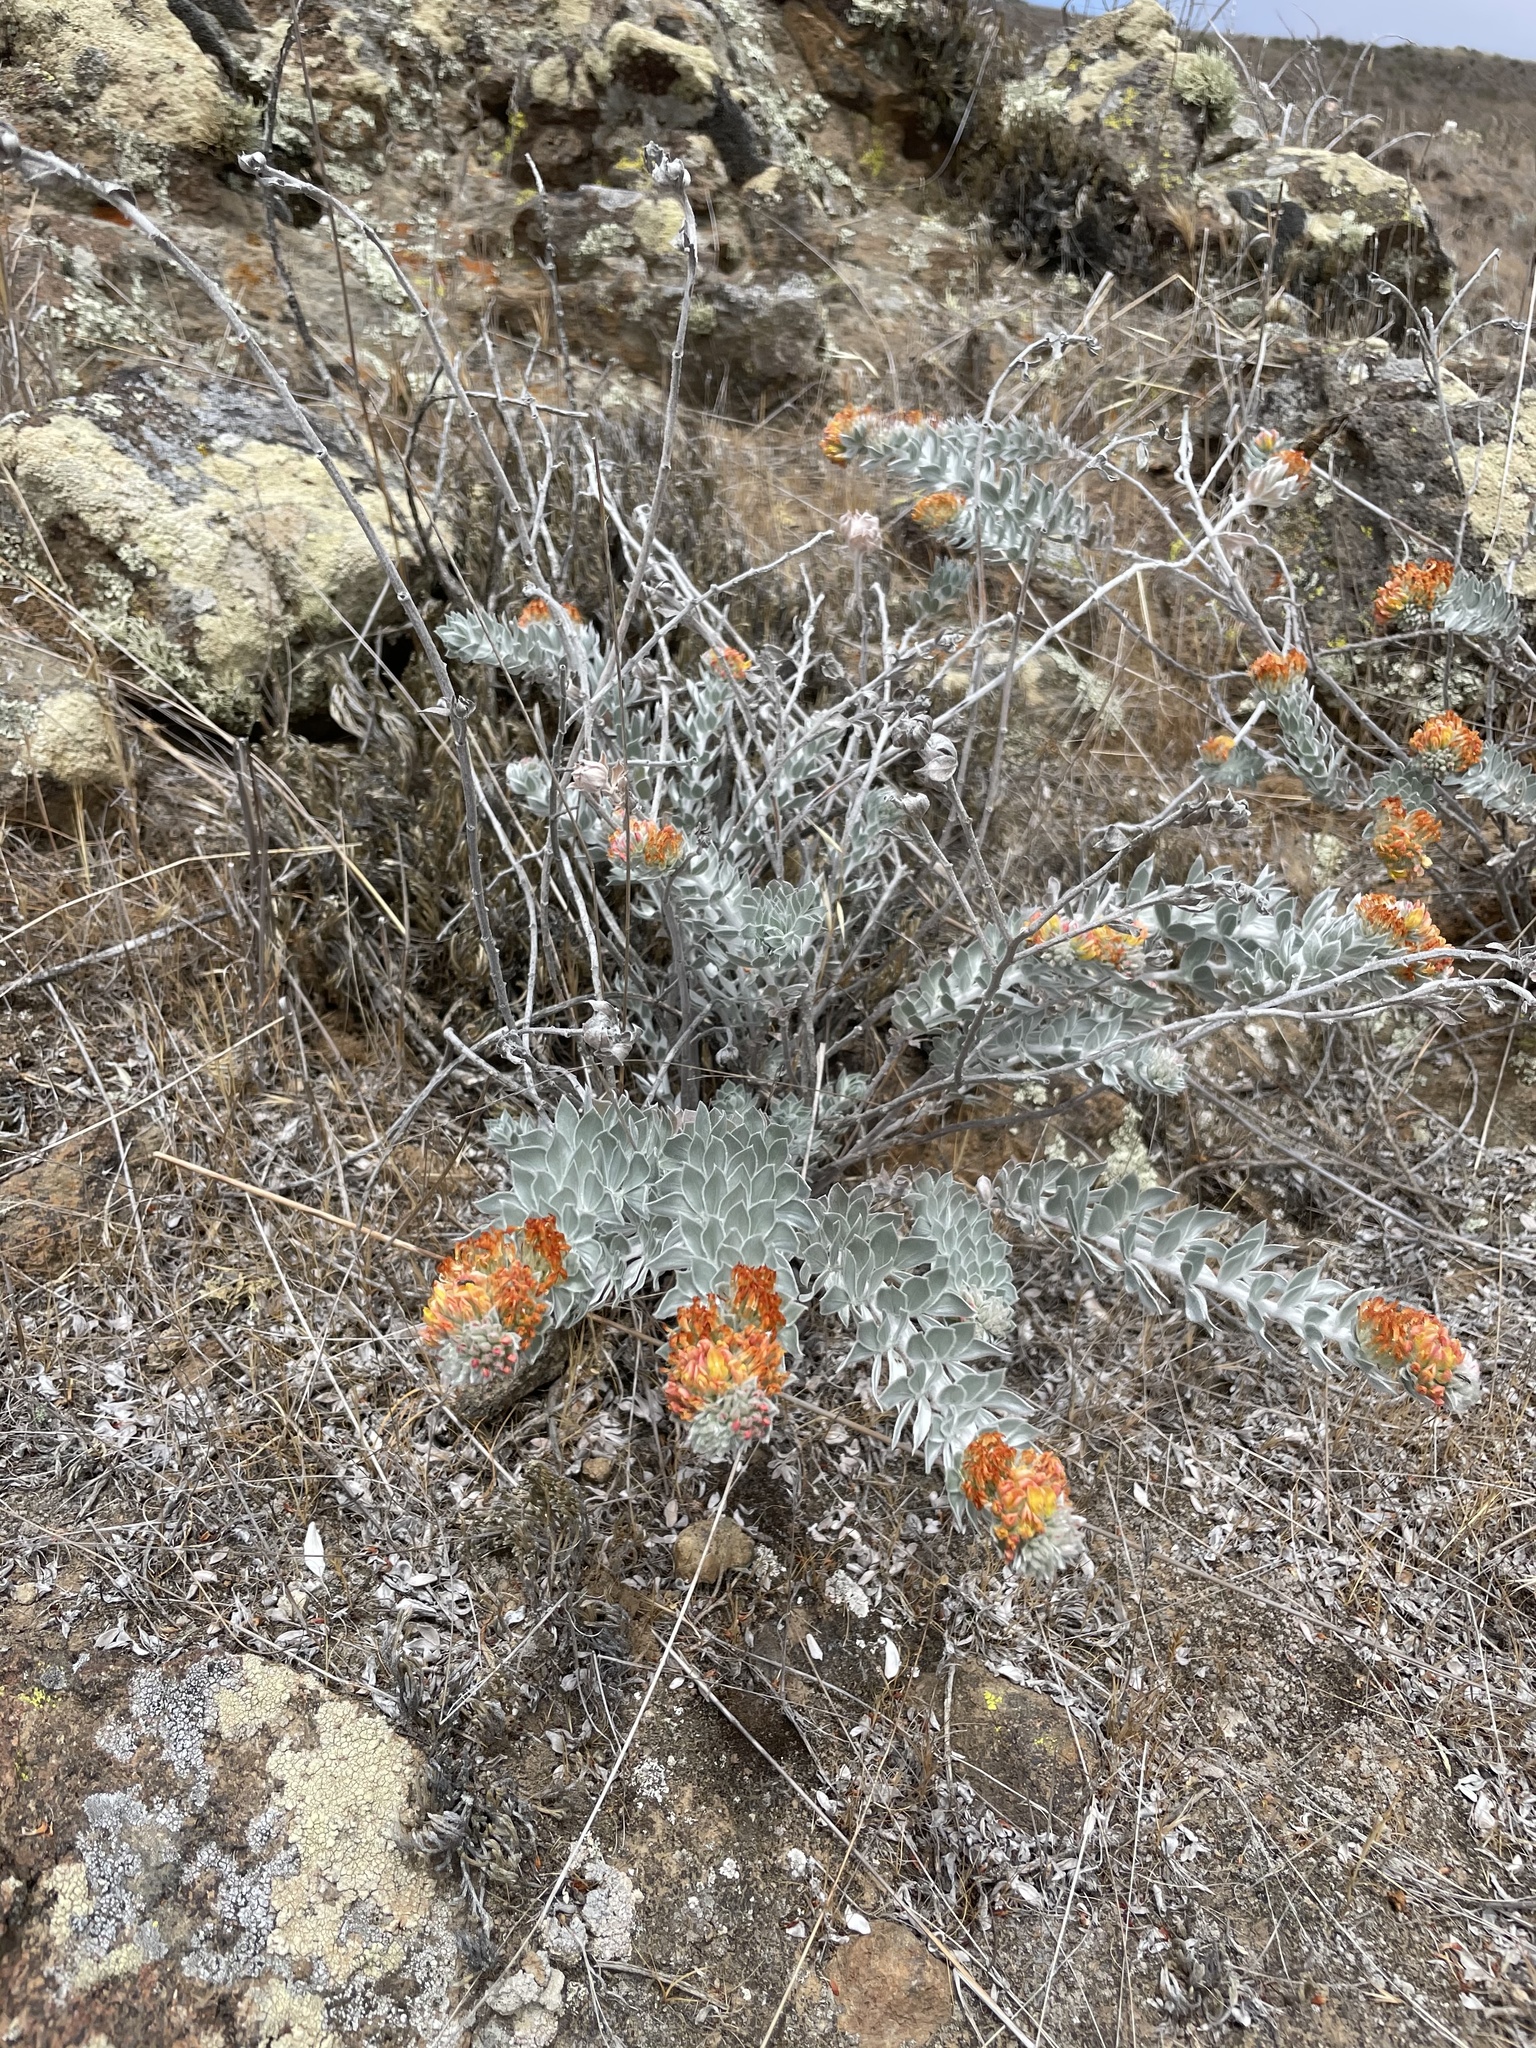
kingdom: Plantae
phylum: Tracheophyta
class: Magnoliopsida
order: Fabales
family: Fabaceae
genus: Acmispon
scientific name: Acmispon argophyllus
